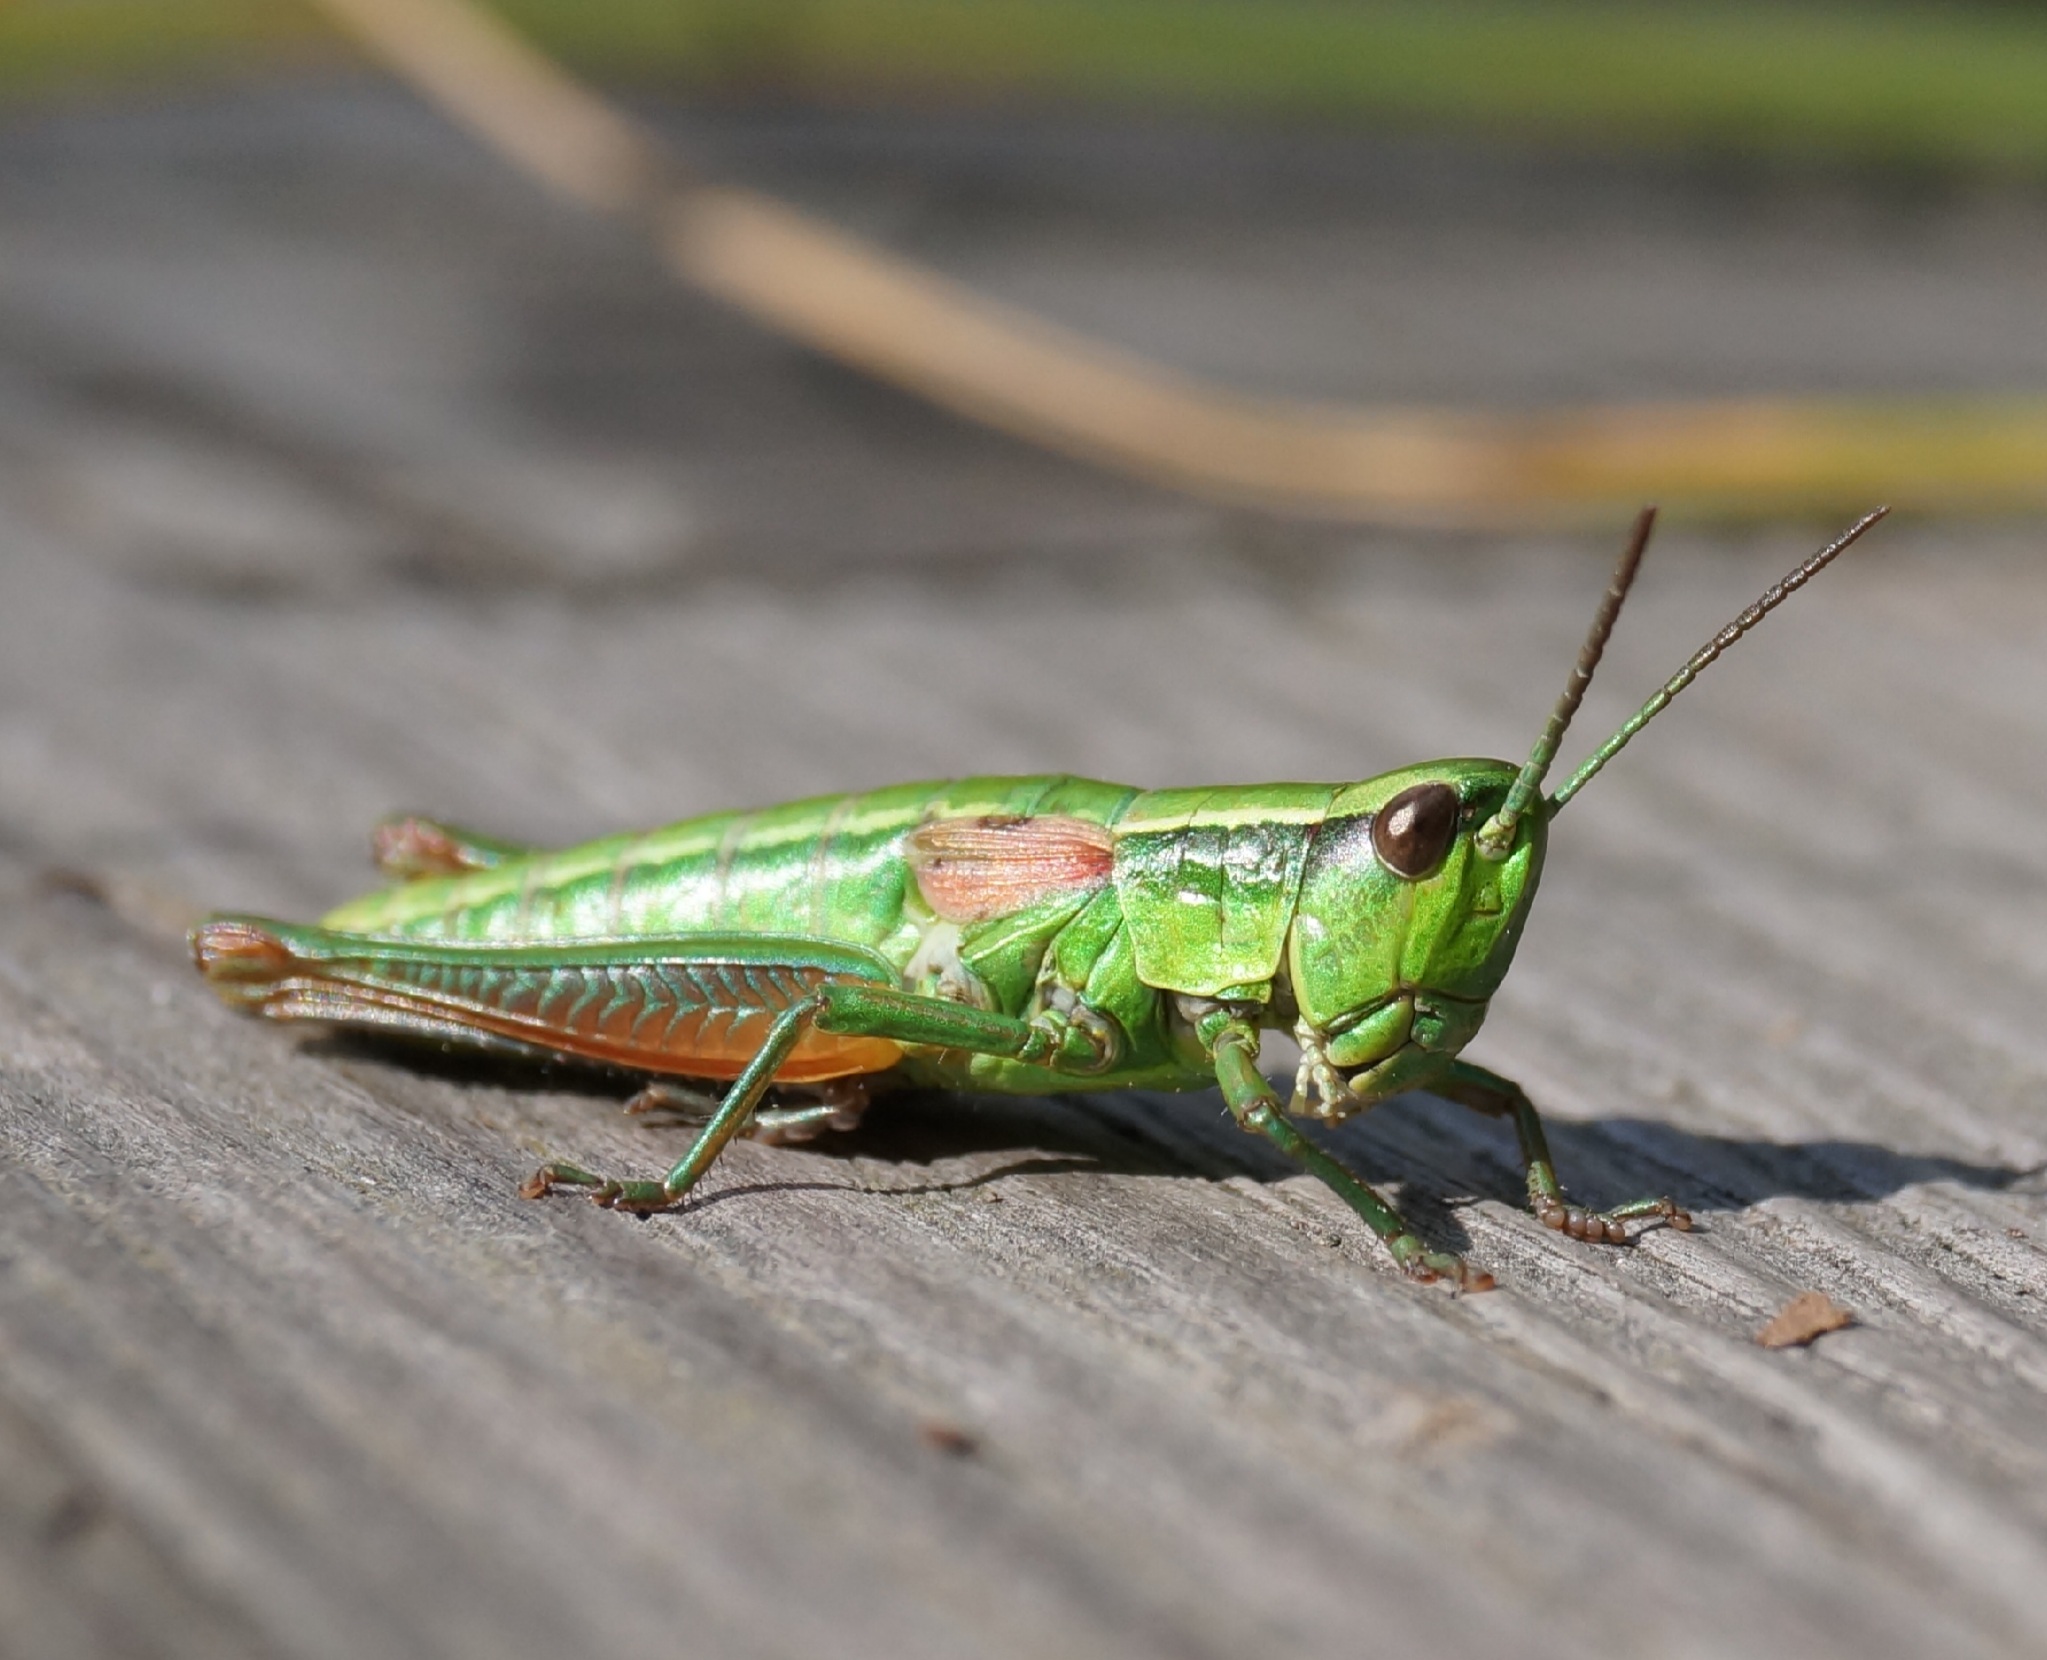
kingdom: Animalia
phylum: Arthropoda
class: Insecta
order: Orthoptera
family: Acrididae
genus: Euthystira
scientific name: Euthystira brachyptera
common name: Small gold grasshopper
